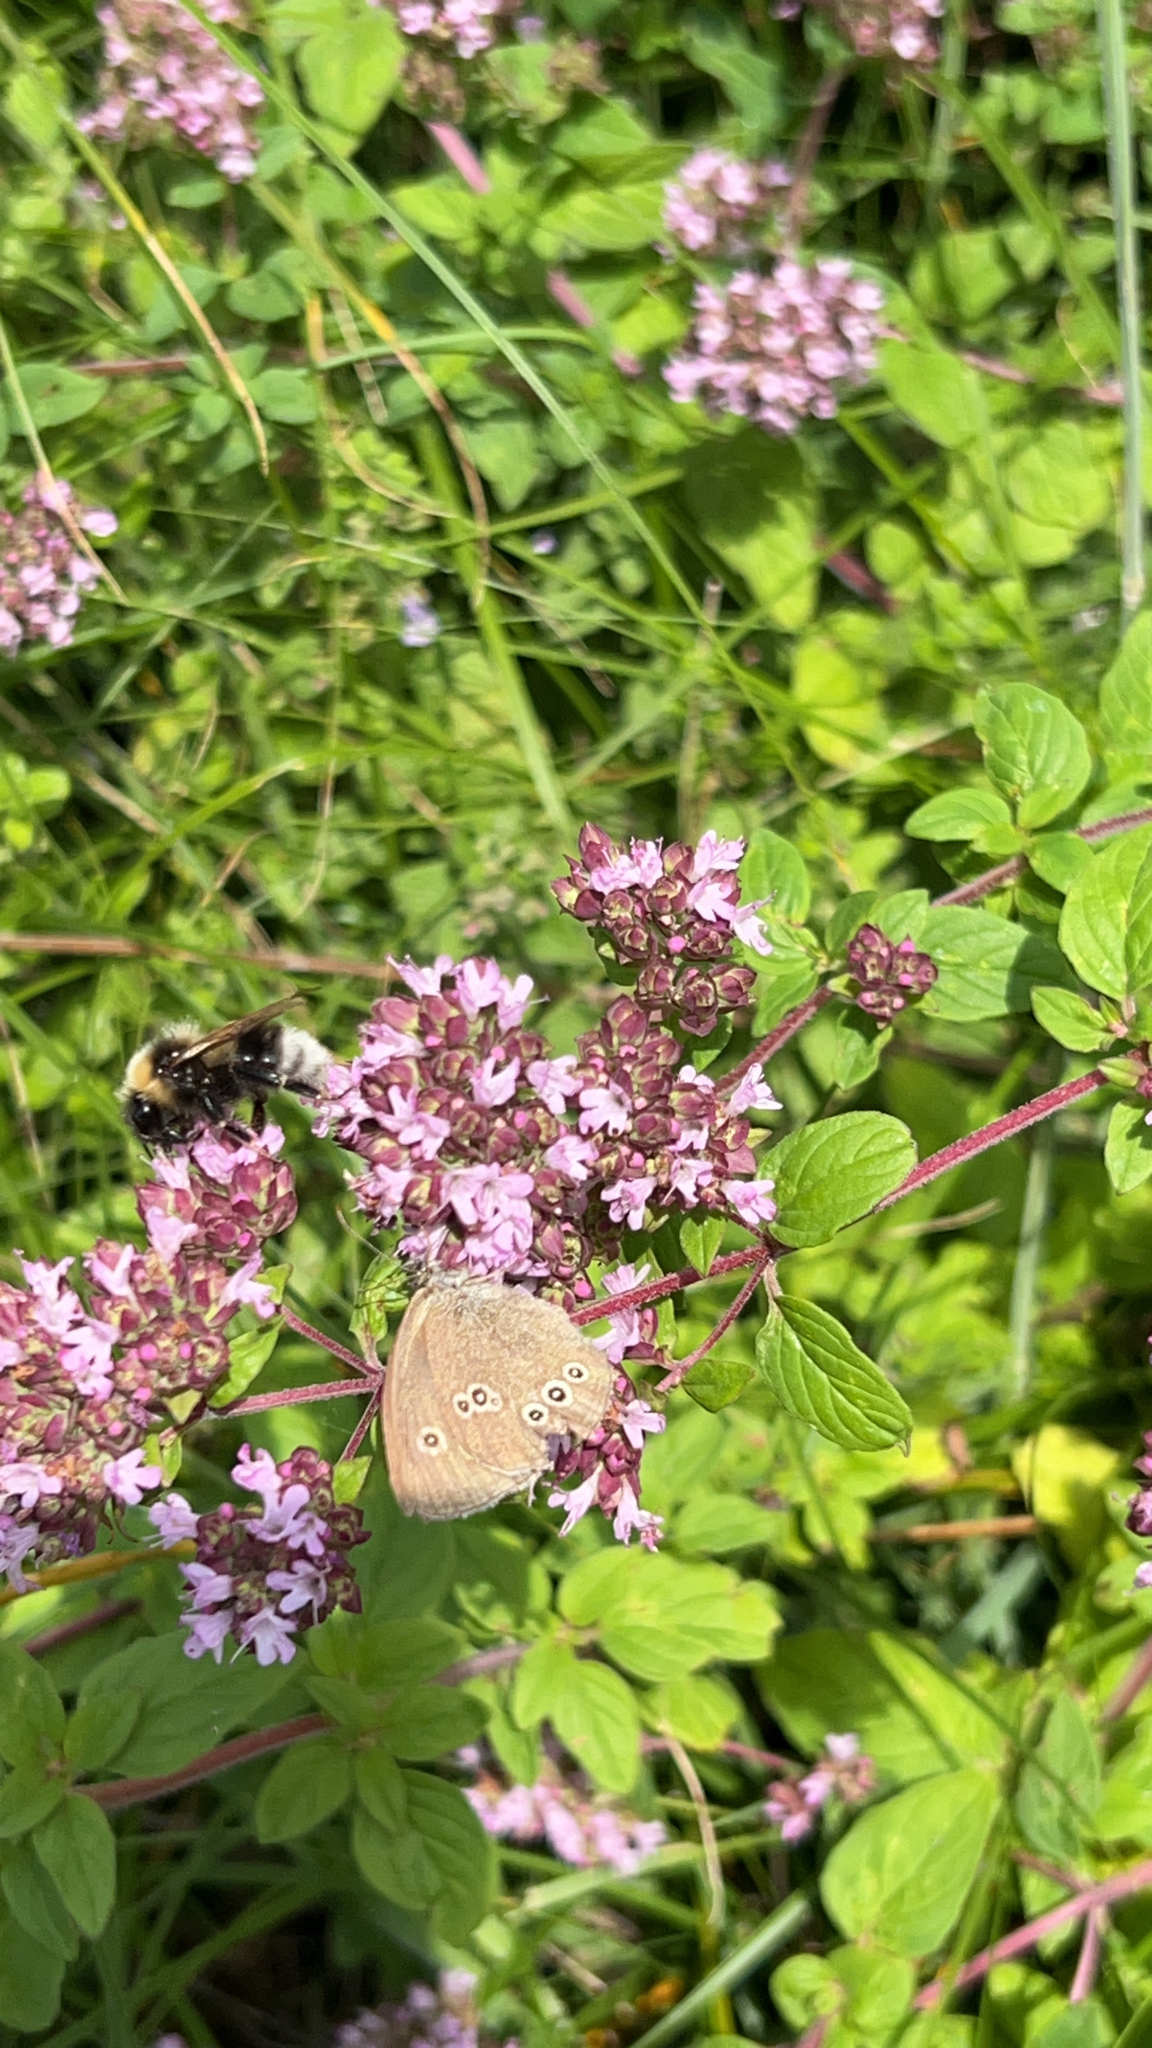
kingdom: Animalia
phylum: Arthropoda
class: Insecta
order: Lepidoptera
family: Nymphalidae
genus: Aphantopus
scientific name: Aphantopus hyperantus
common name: Ringlet
